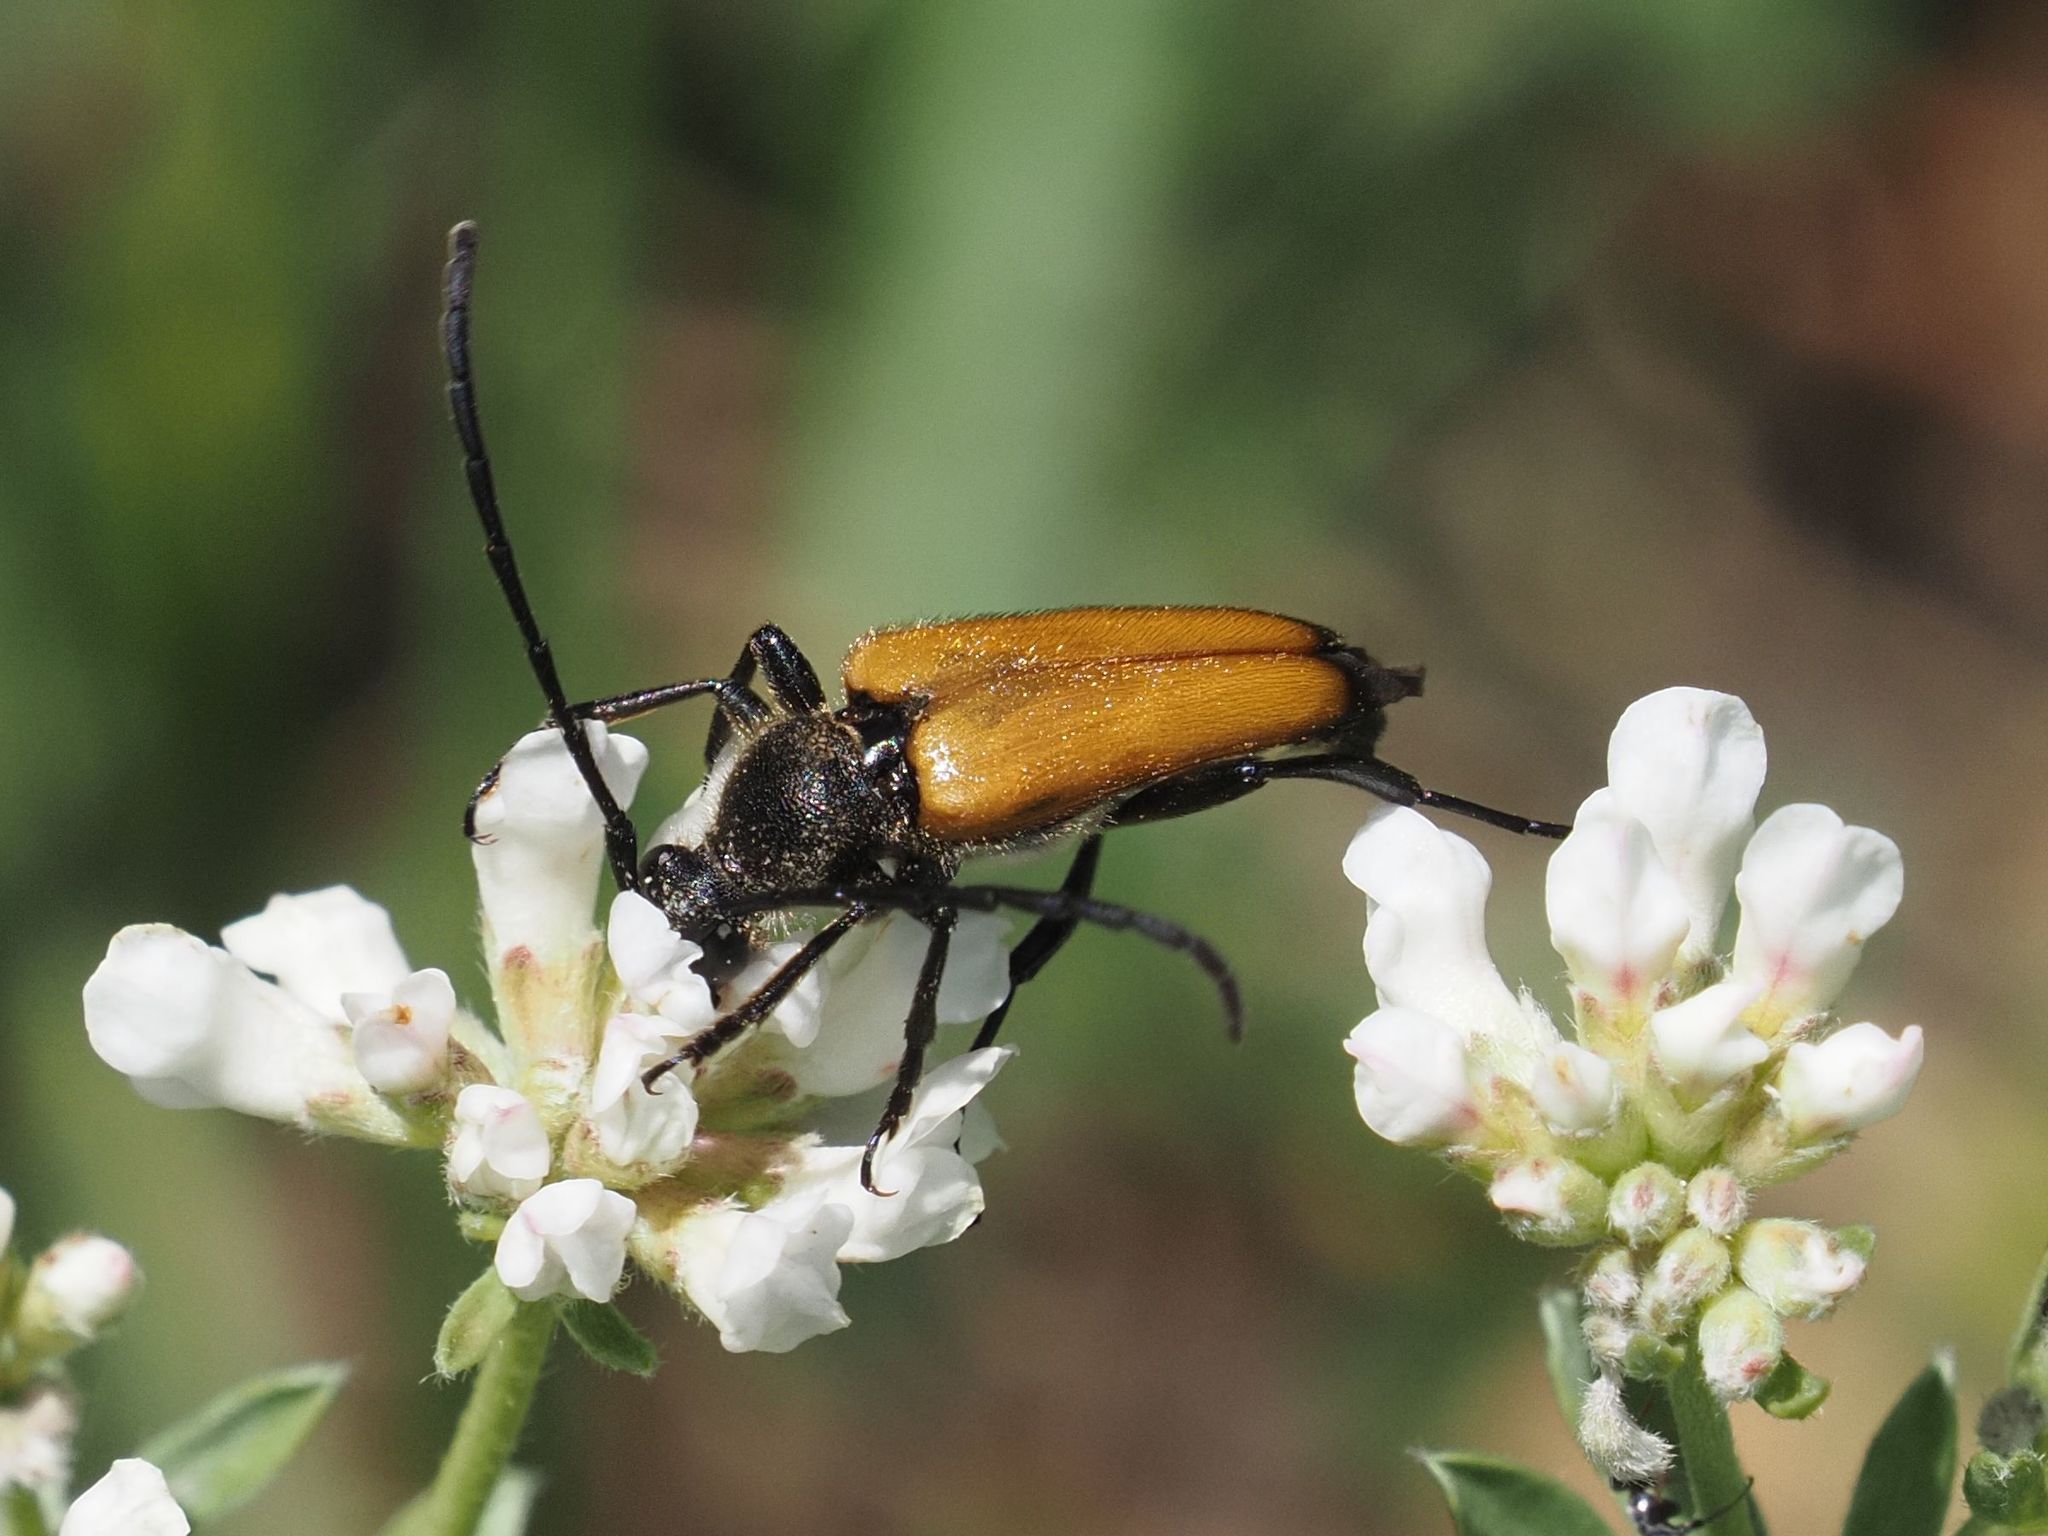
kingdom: Animalia
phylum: Arthropoda
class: Insecta
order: Coleoptera
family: Cerambycidae
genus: Paracorymbia
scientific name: Paracorymbia fulva
